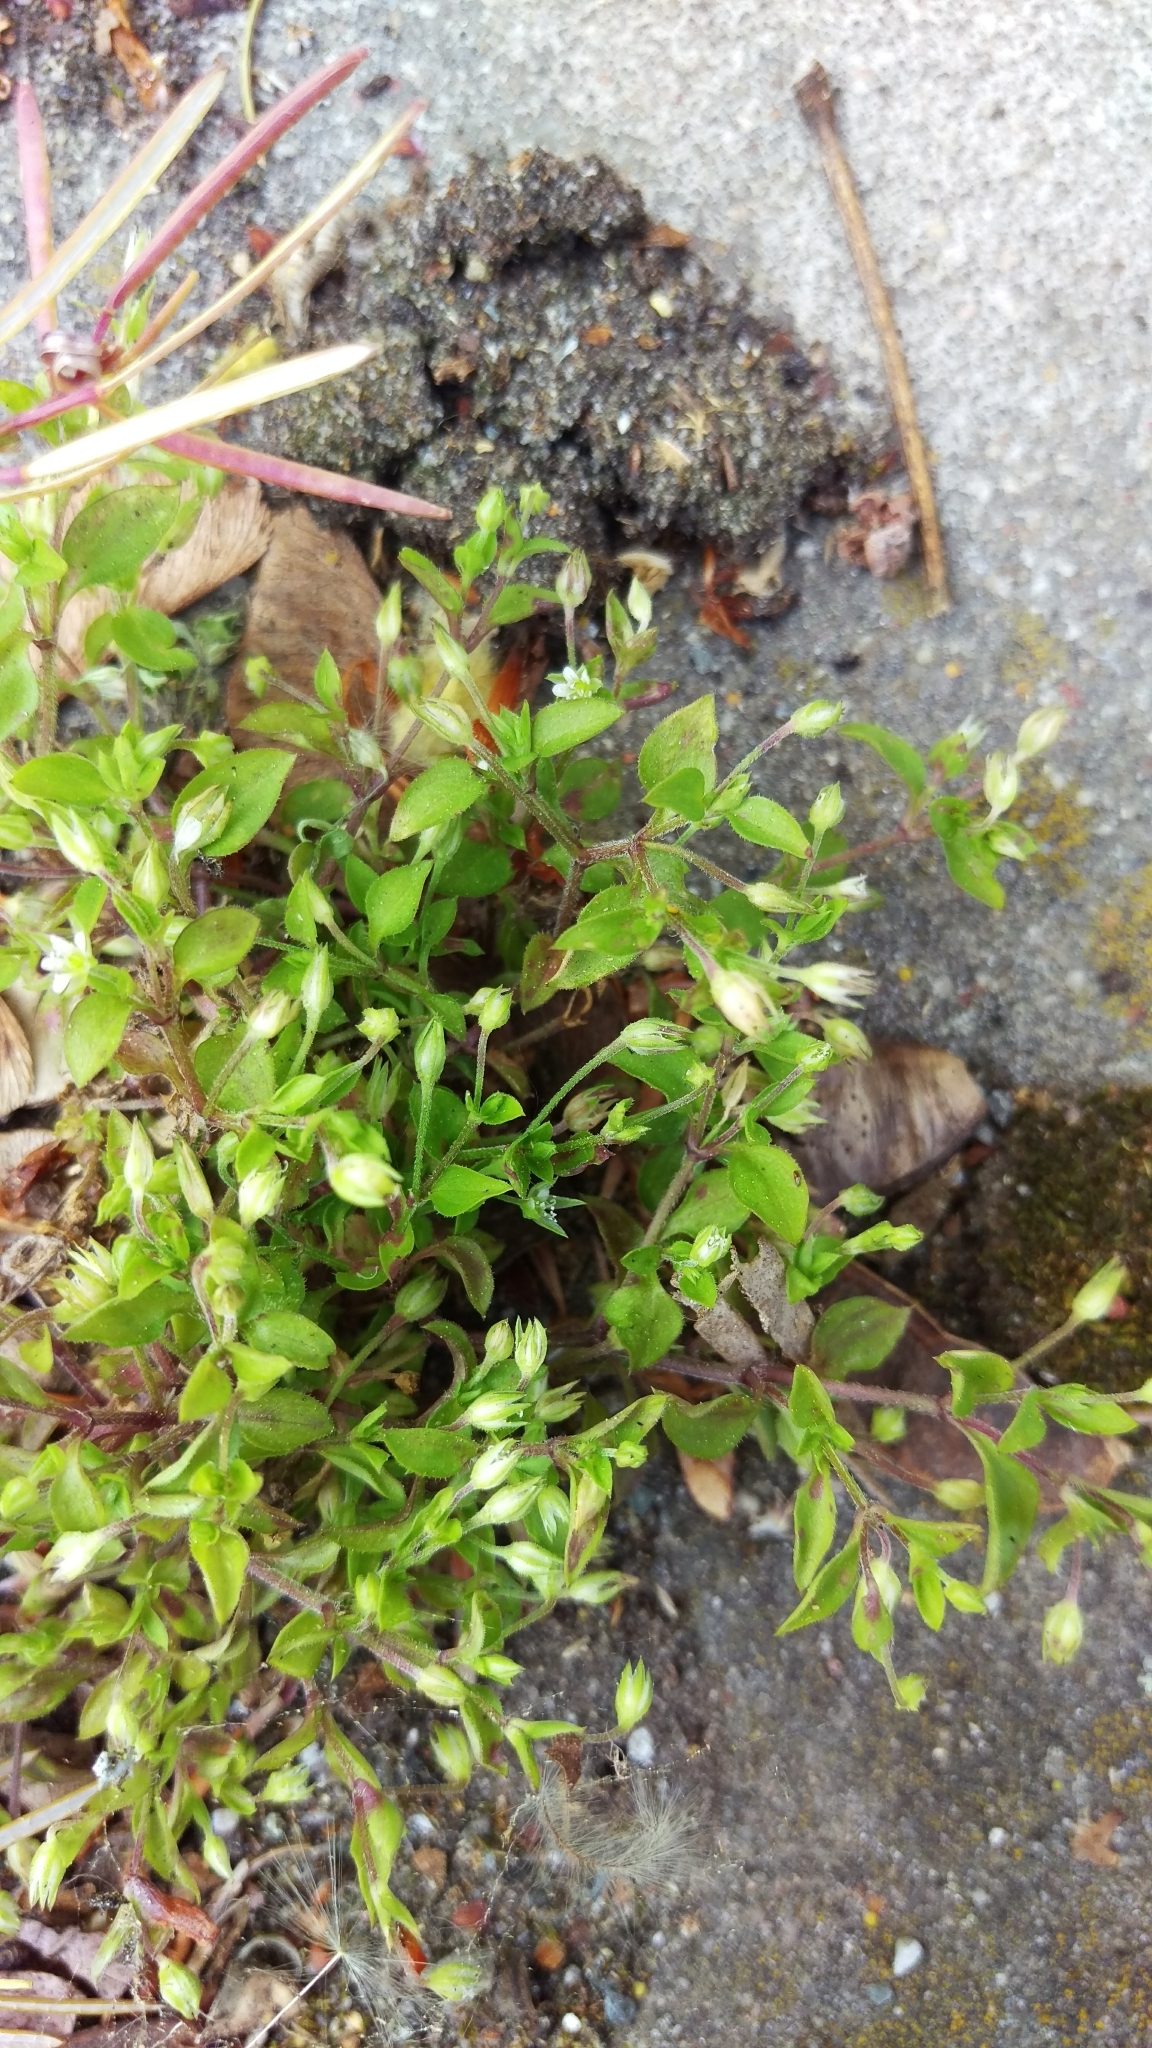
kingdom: Plantae
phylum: Tracheophyta
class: Magnoliopsida
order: Caryophyllales
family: Caryophyllaceae
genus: Moehringia
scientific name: Moehringia trinervia
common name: Three-nerved sandwort
